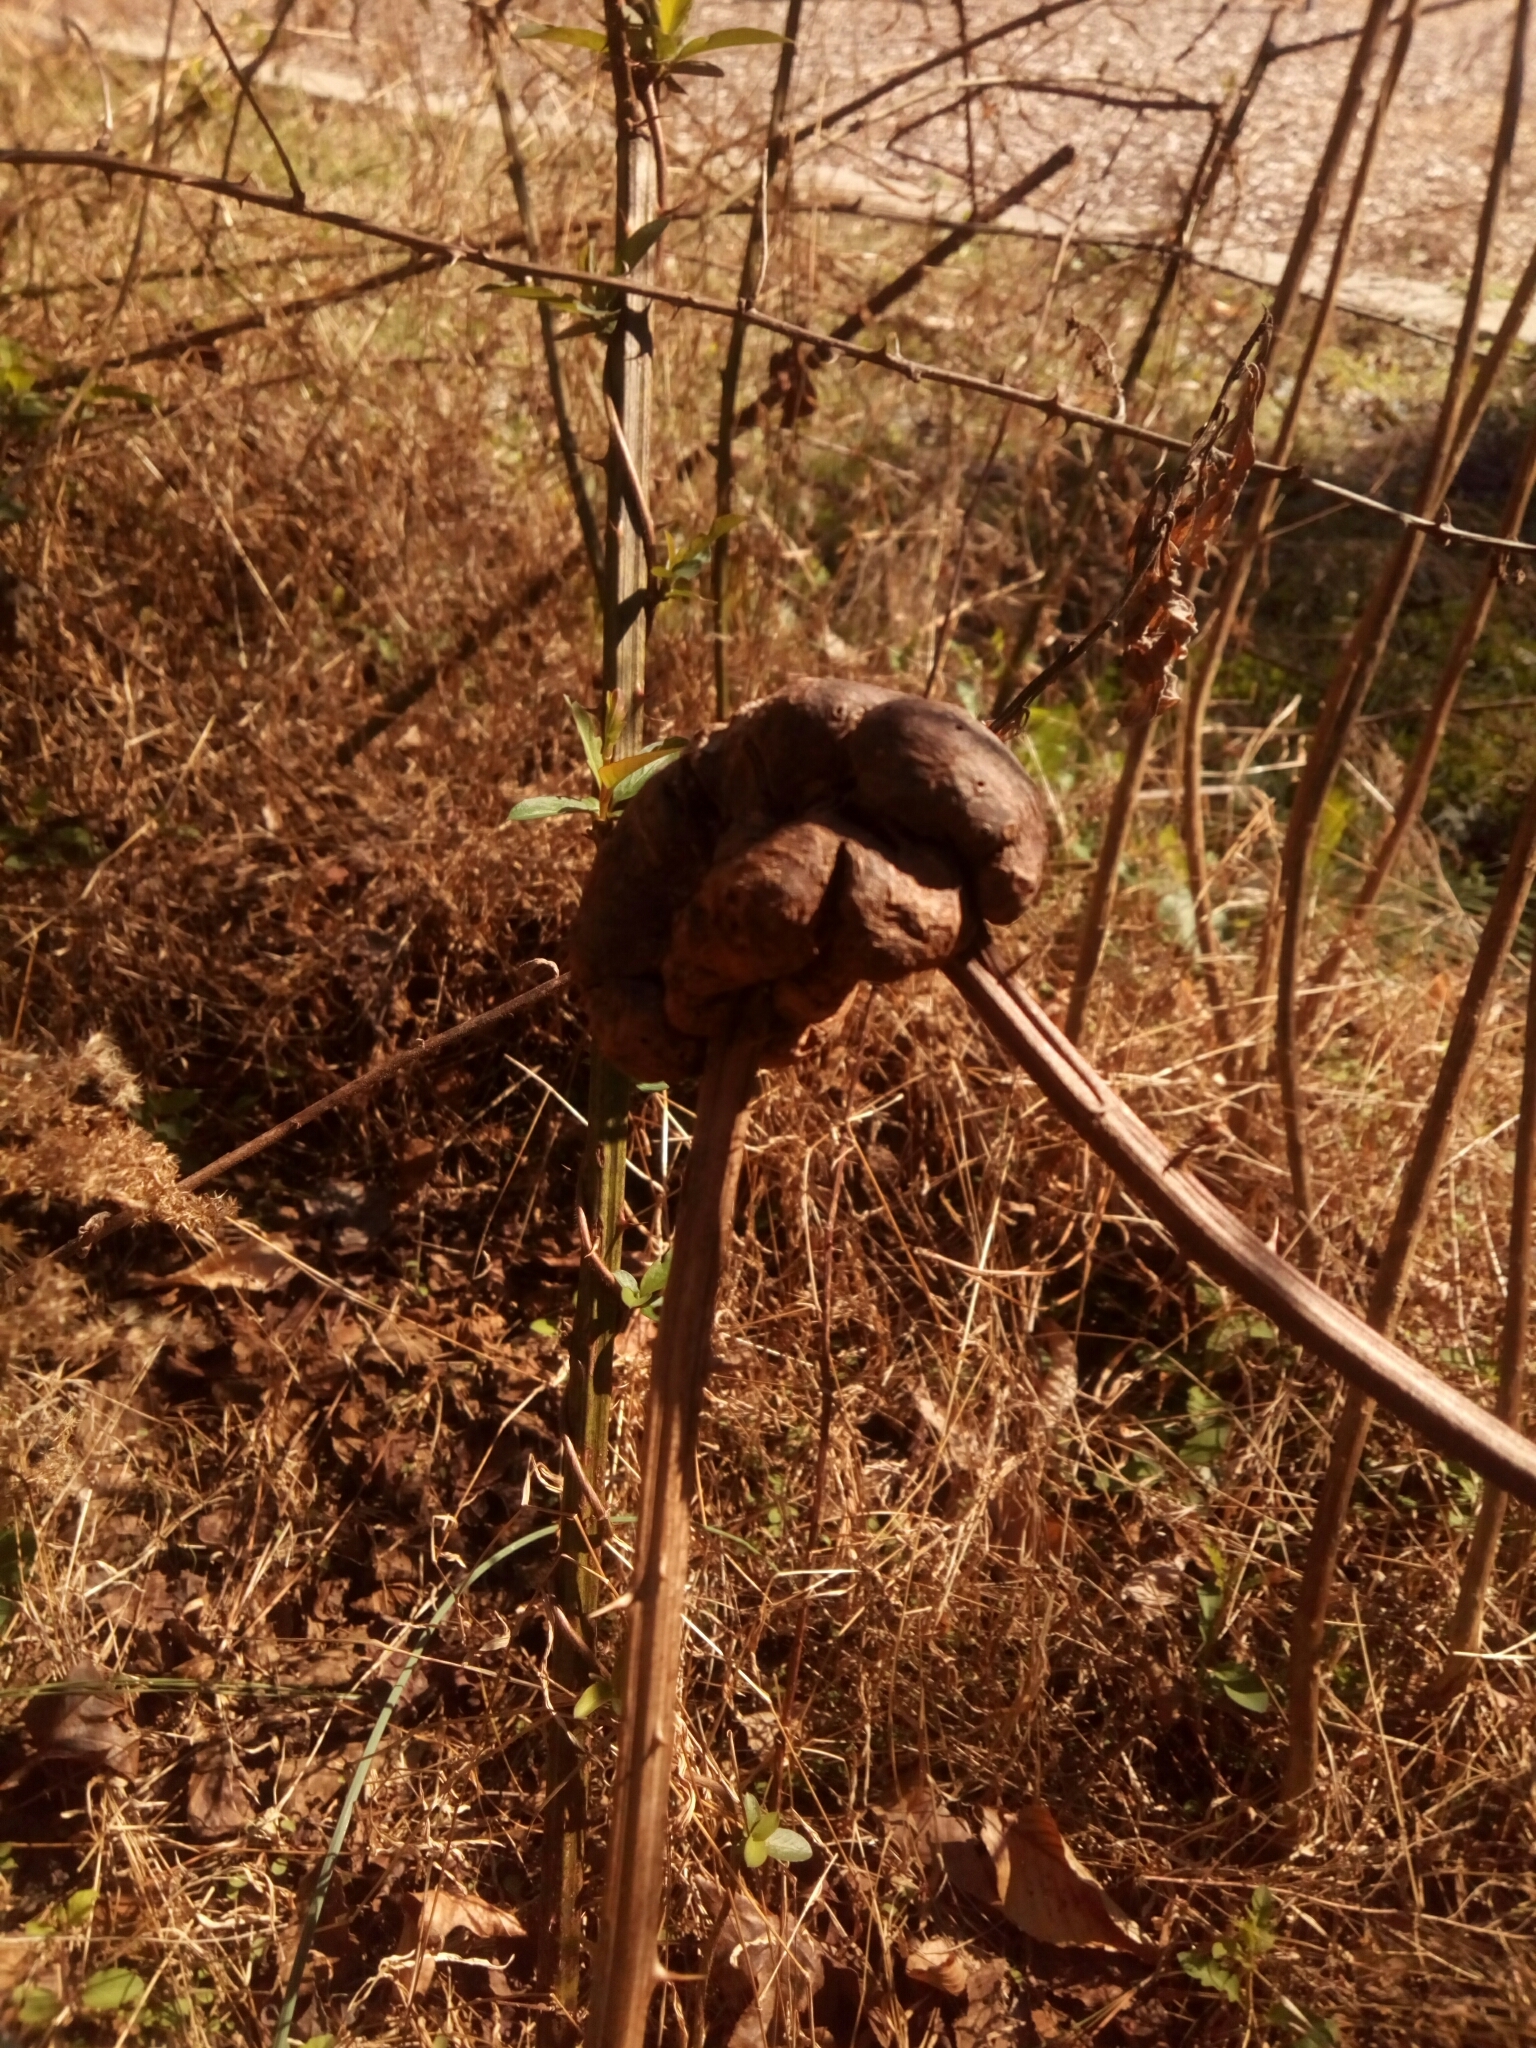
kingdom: Animalia
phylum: Arthropoda
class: Insecta
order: Hymenoptera
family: Cynipidae
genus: Diastrophus
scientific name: Diastrophus
